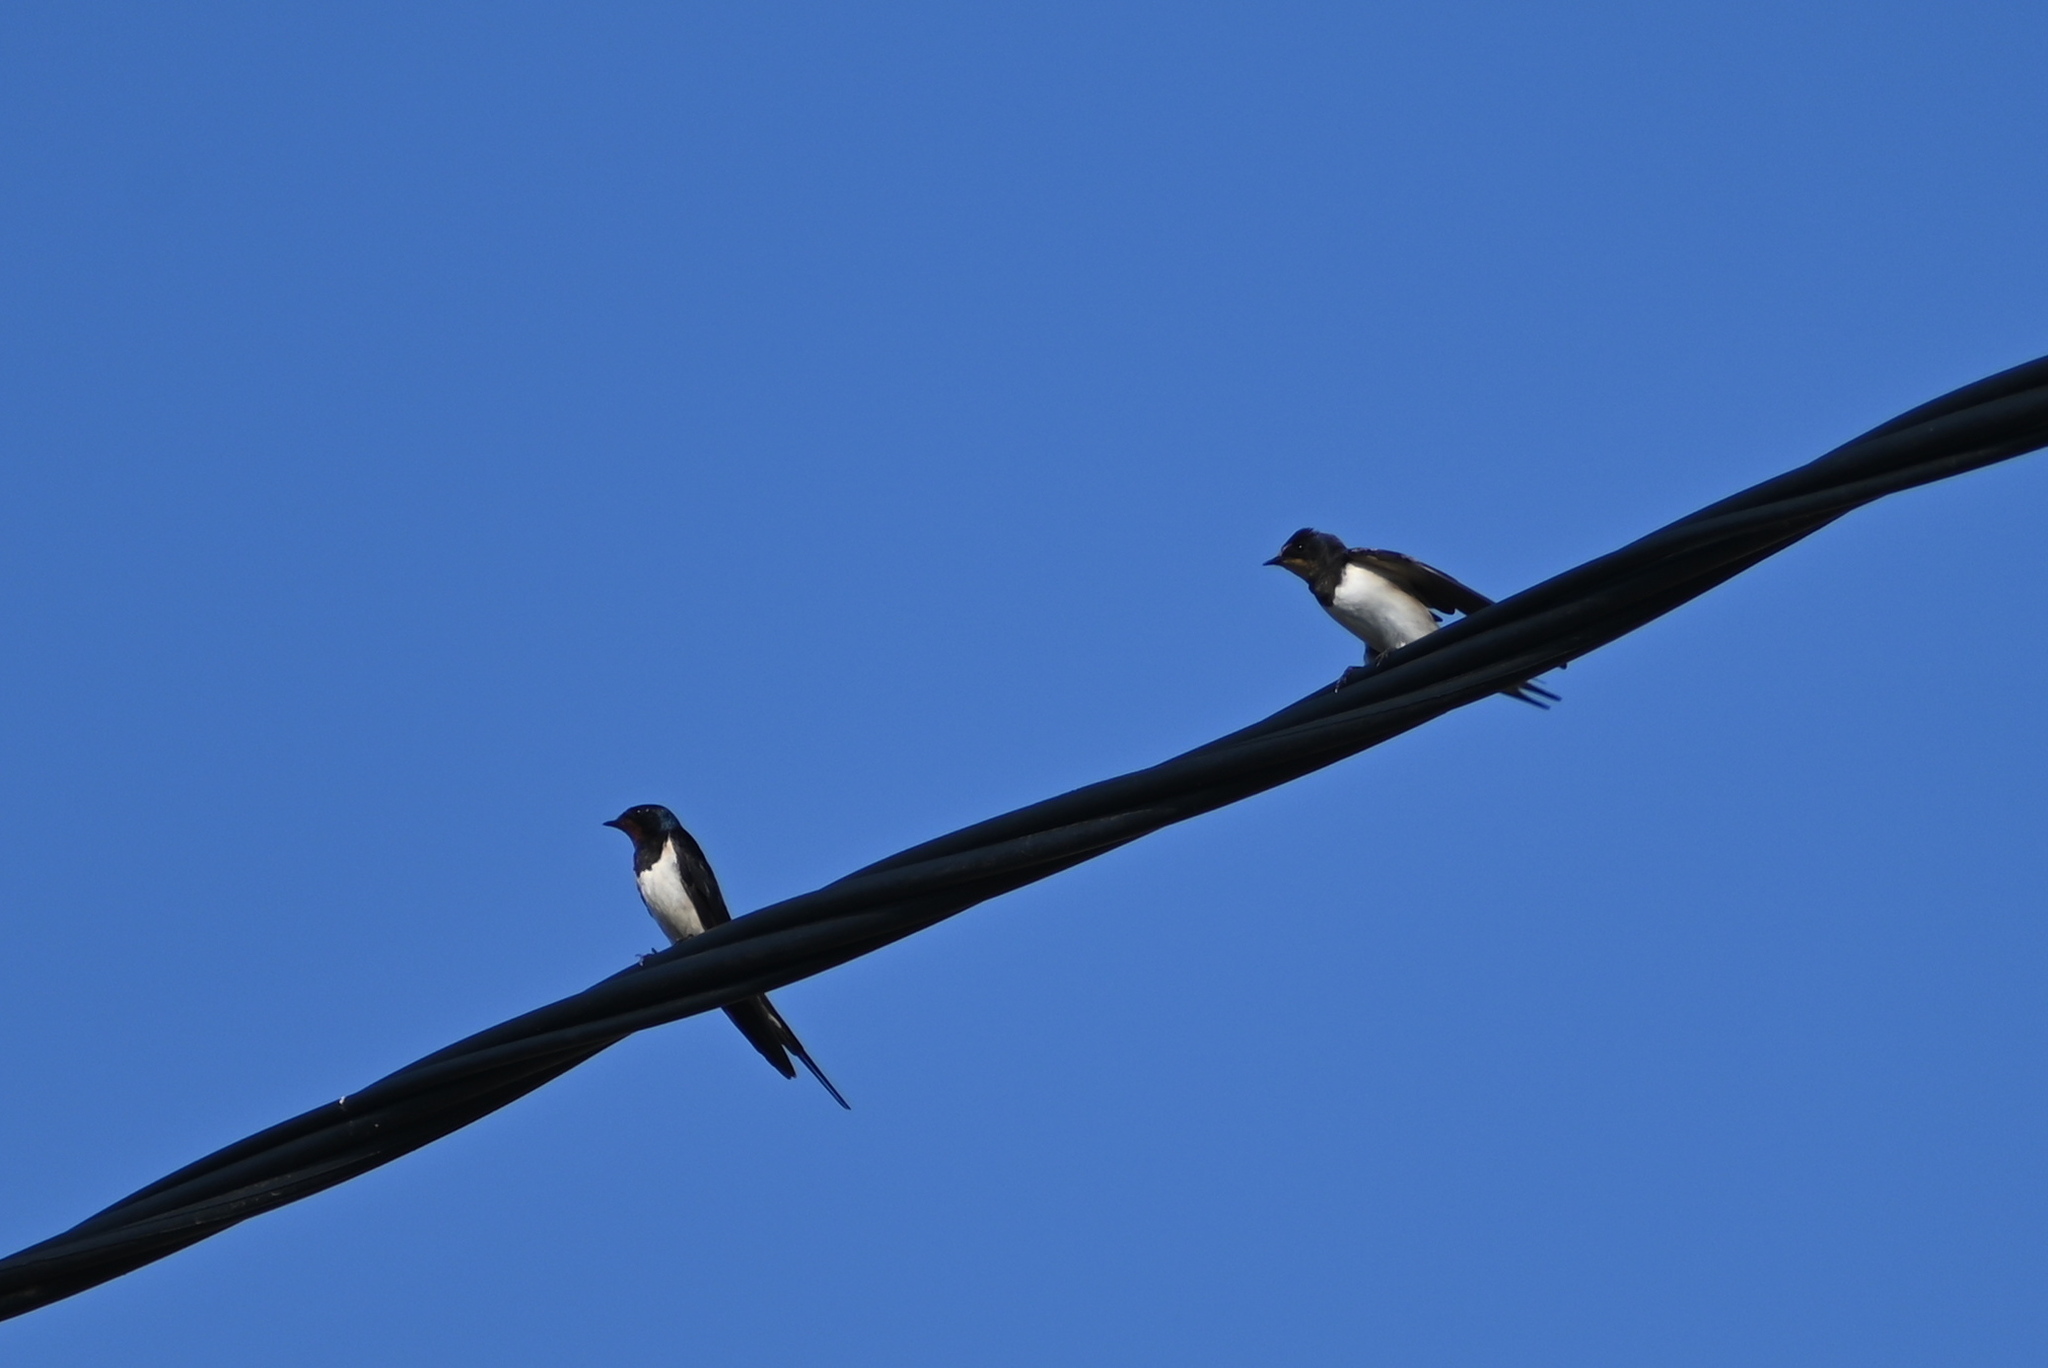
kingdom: Animalia
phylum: Chordata
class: Aves
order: Passeriformes
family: Hirundinidae
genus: Hirundo
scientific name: Hirundo rustica
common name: Barn swallow
